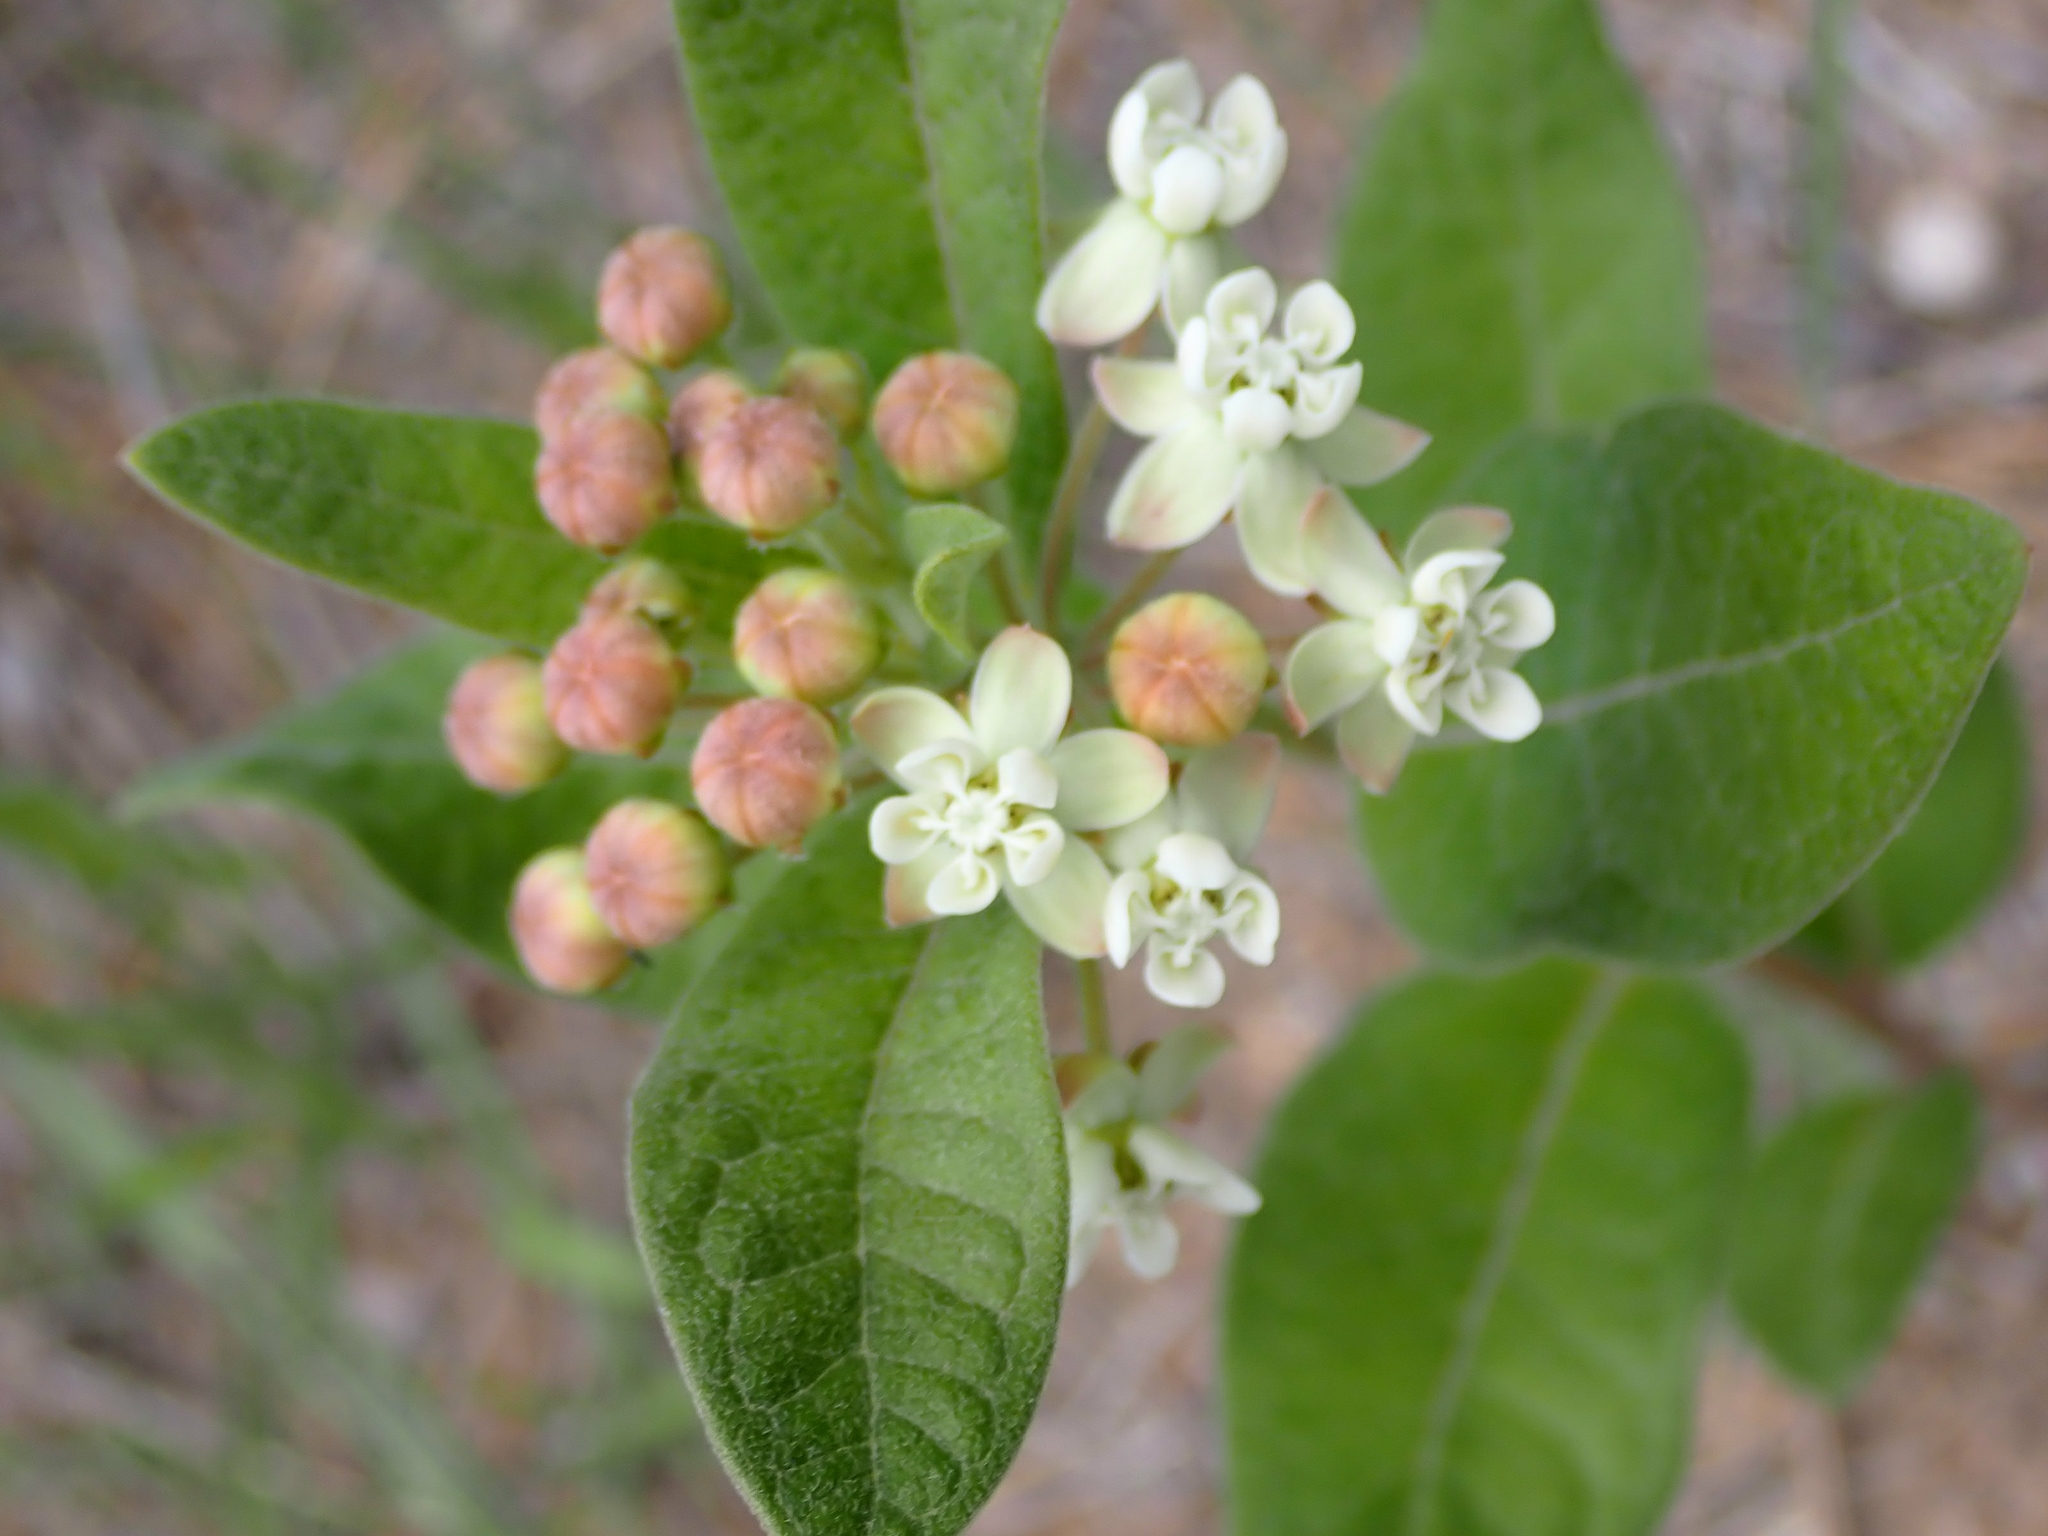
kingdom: Plantae
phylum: Tracheophyta
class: Magnoliopsida
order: Gentianales
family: Apocynaceae
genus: Asclepias
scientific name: Asclepias ovalifolia
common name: Dwarf milkweed
